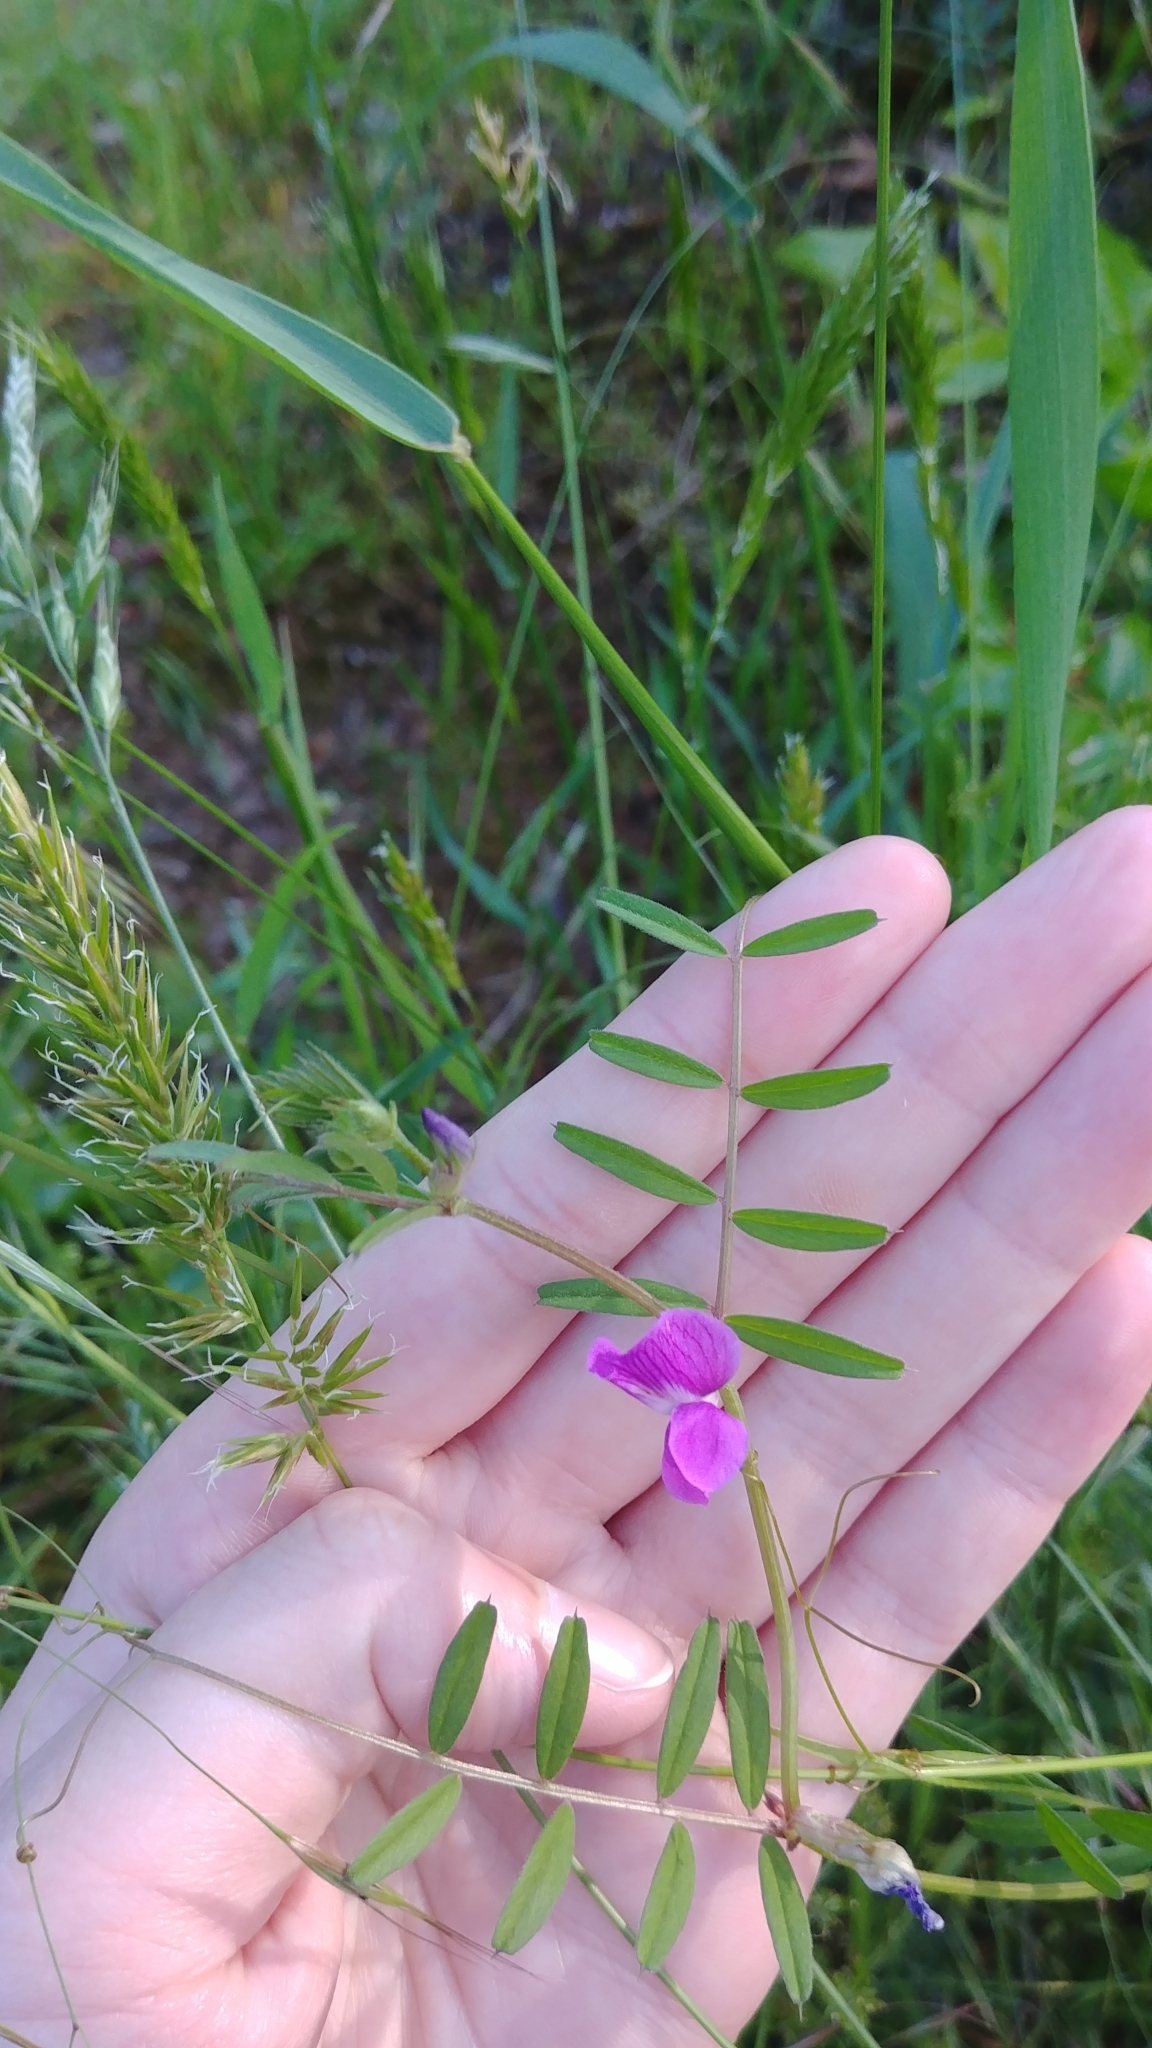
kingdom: Plantae
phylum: Tracheophyta
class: Magnoliopsida
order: Fabales
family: Fabaceae
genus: Vicia
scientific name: Vicia sativa
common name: Garden vetch
